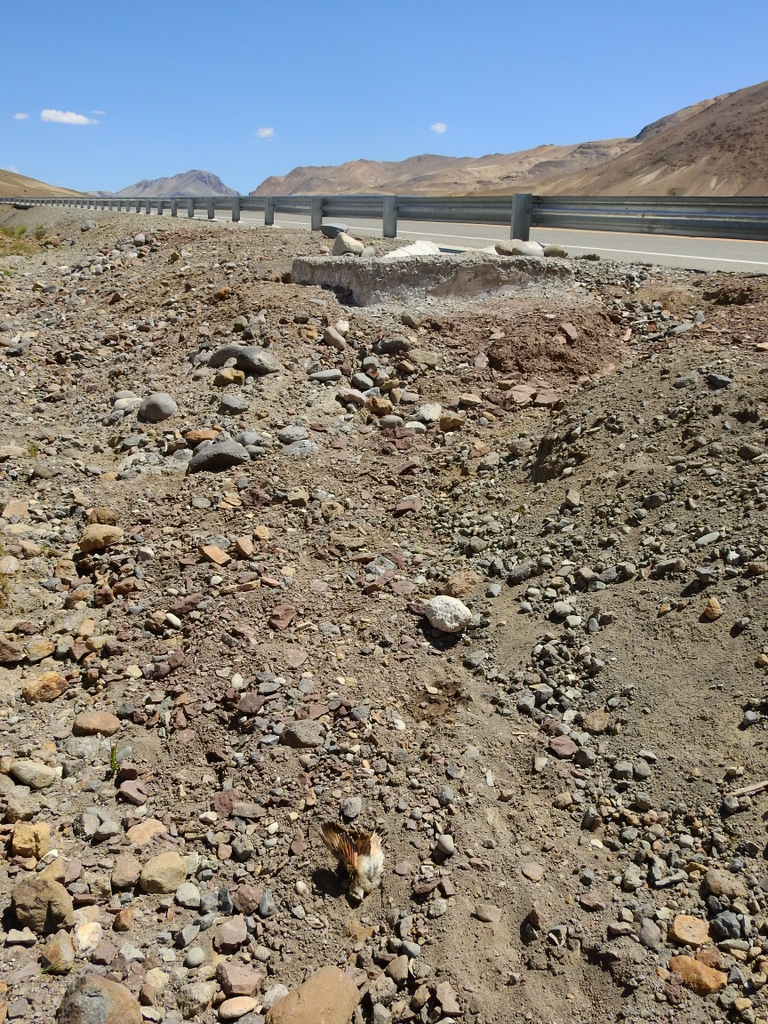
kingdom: Animalia
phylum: Chordata
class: Aves
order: Passeriformes
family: Furnariidae
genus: Geositta
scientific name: Geositta rufipennis
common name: Rufous-banded miner
